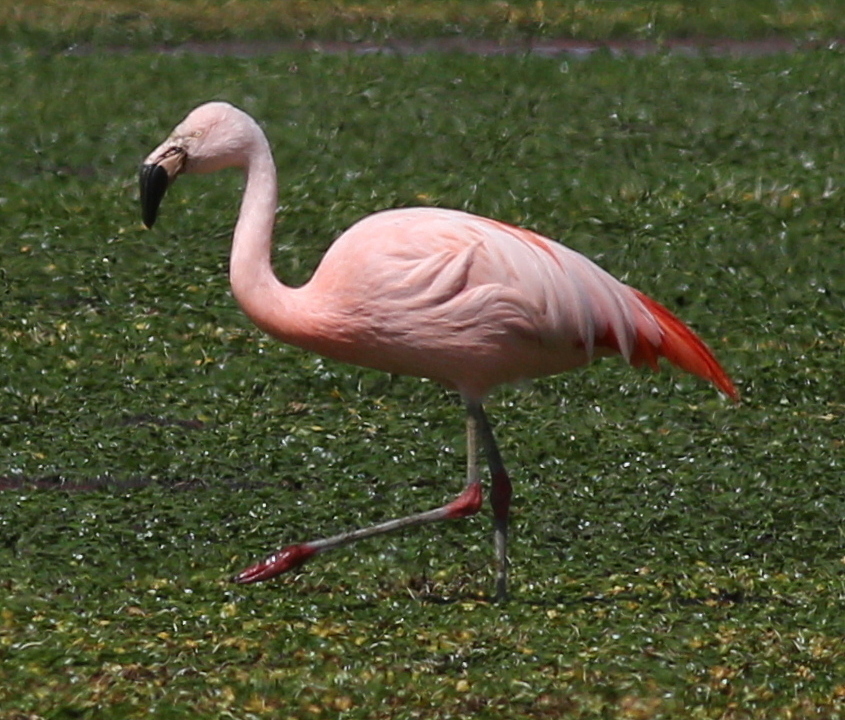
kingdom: Animalia
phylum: Chordata
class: Aves
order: Phoenicopteriformes
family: Phoenicopteridae
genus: Phoenicopterus
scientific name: Phoenicopterus chilensis
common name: Chilean flamingo
